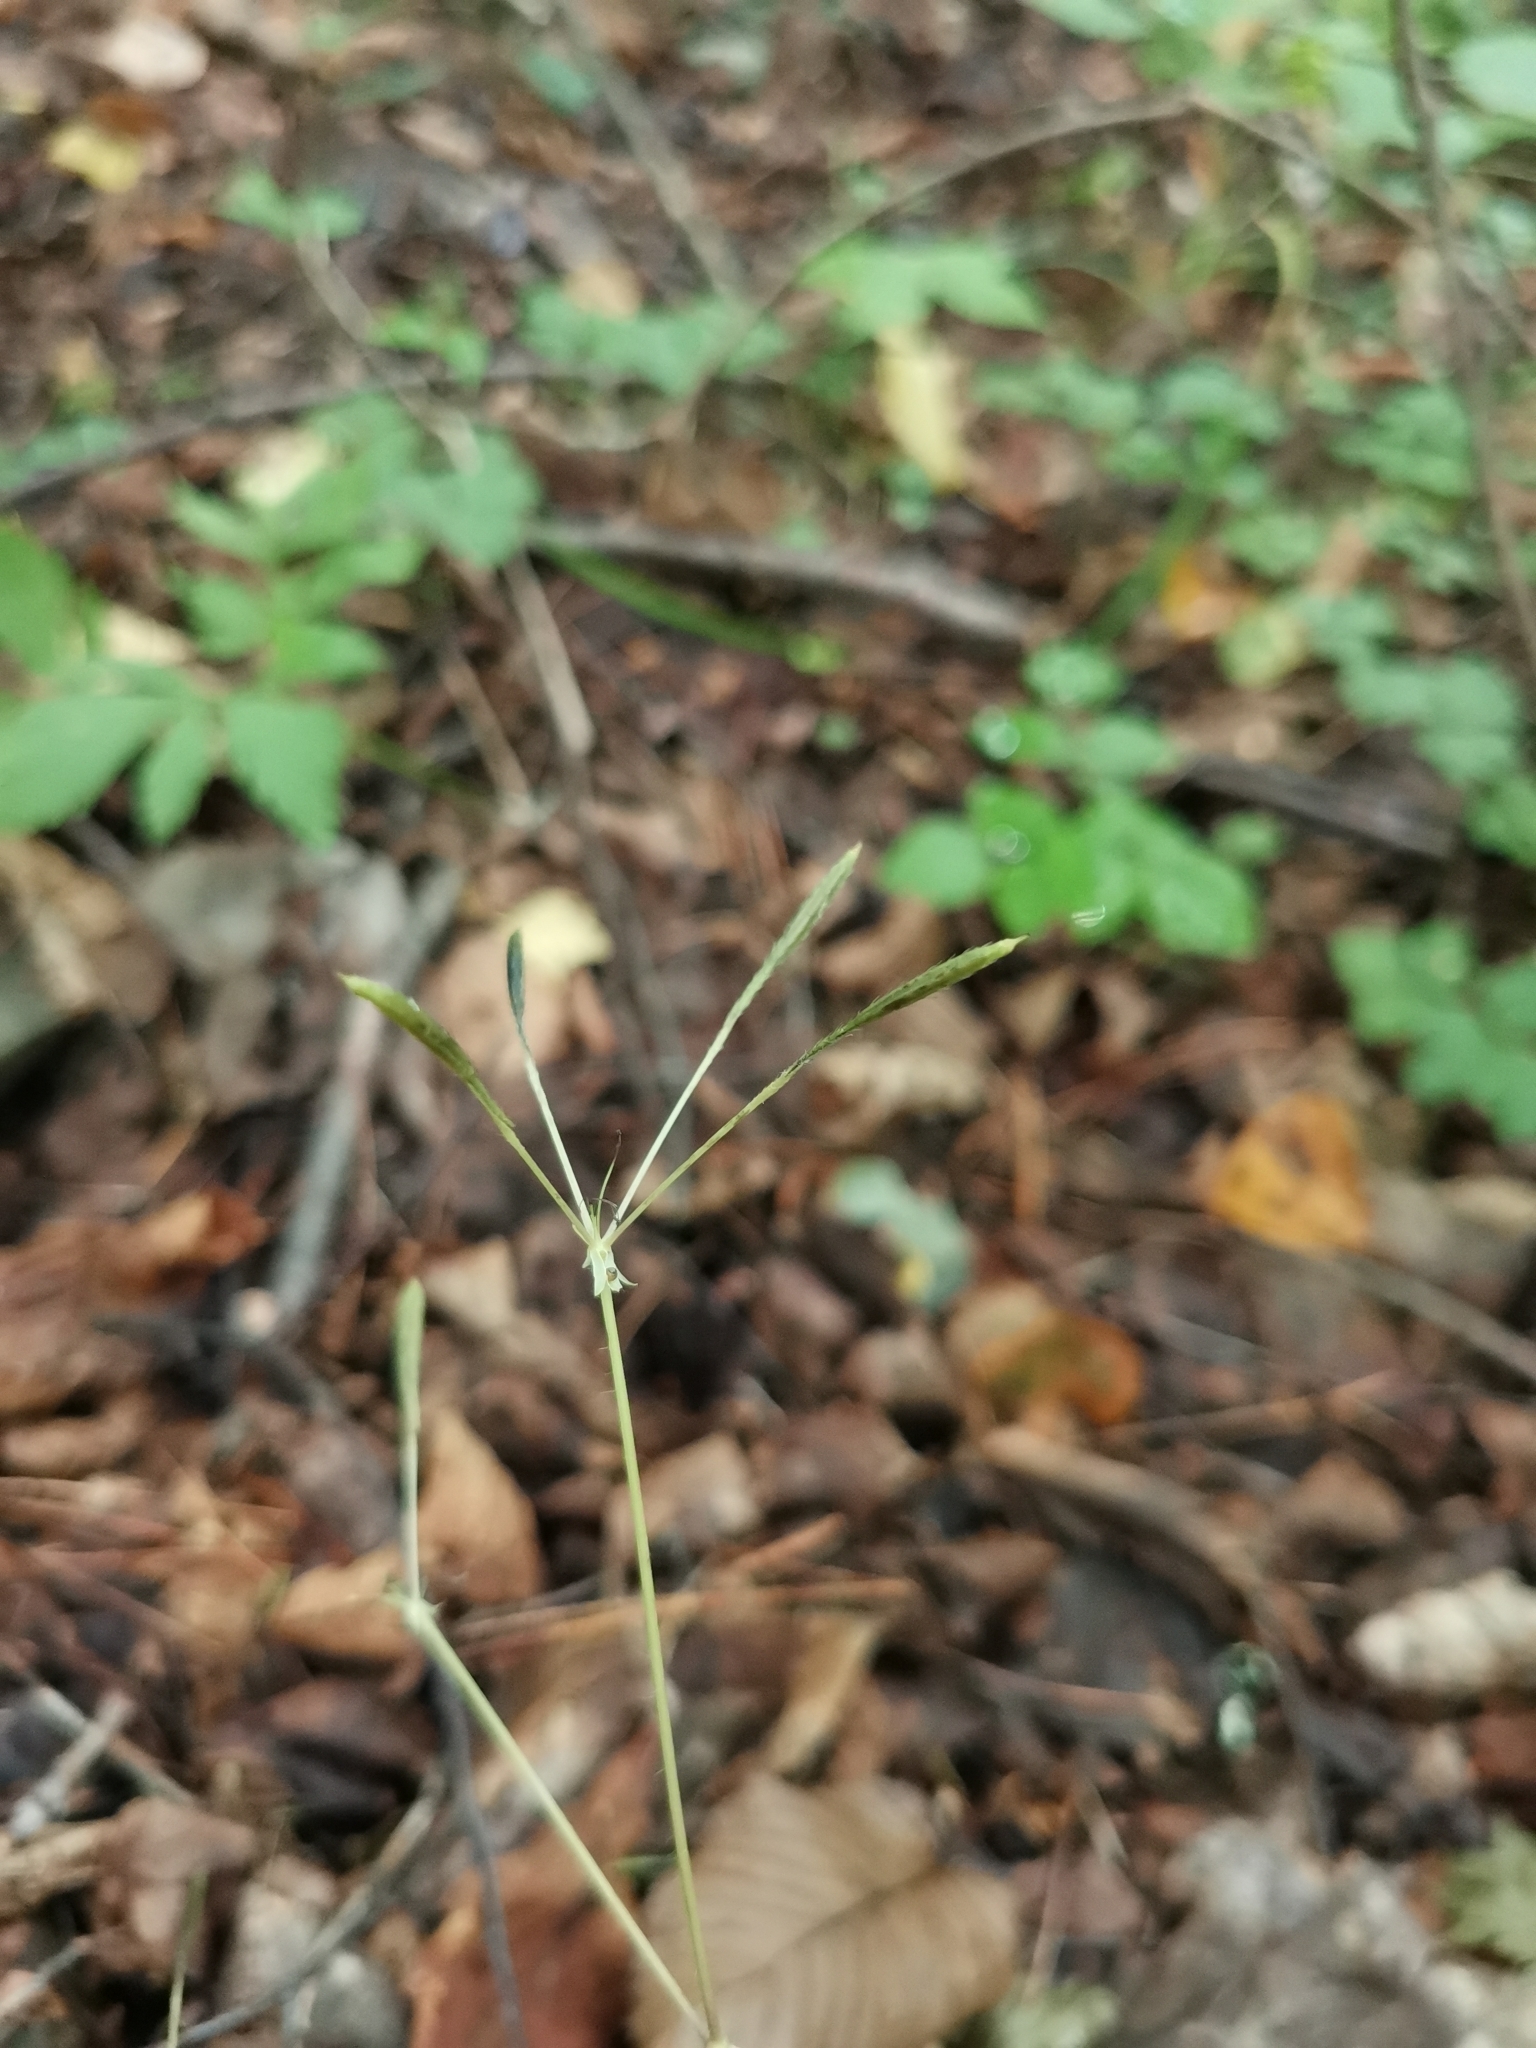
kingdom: Plantae
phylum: Tracheophyta
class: Magnoliopsida
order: Apiales
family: Apiaceae
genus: Osmorhiza
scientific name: Osmorhiza aristata
